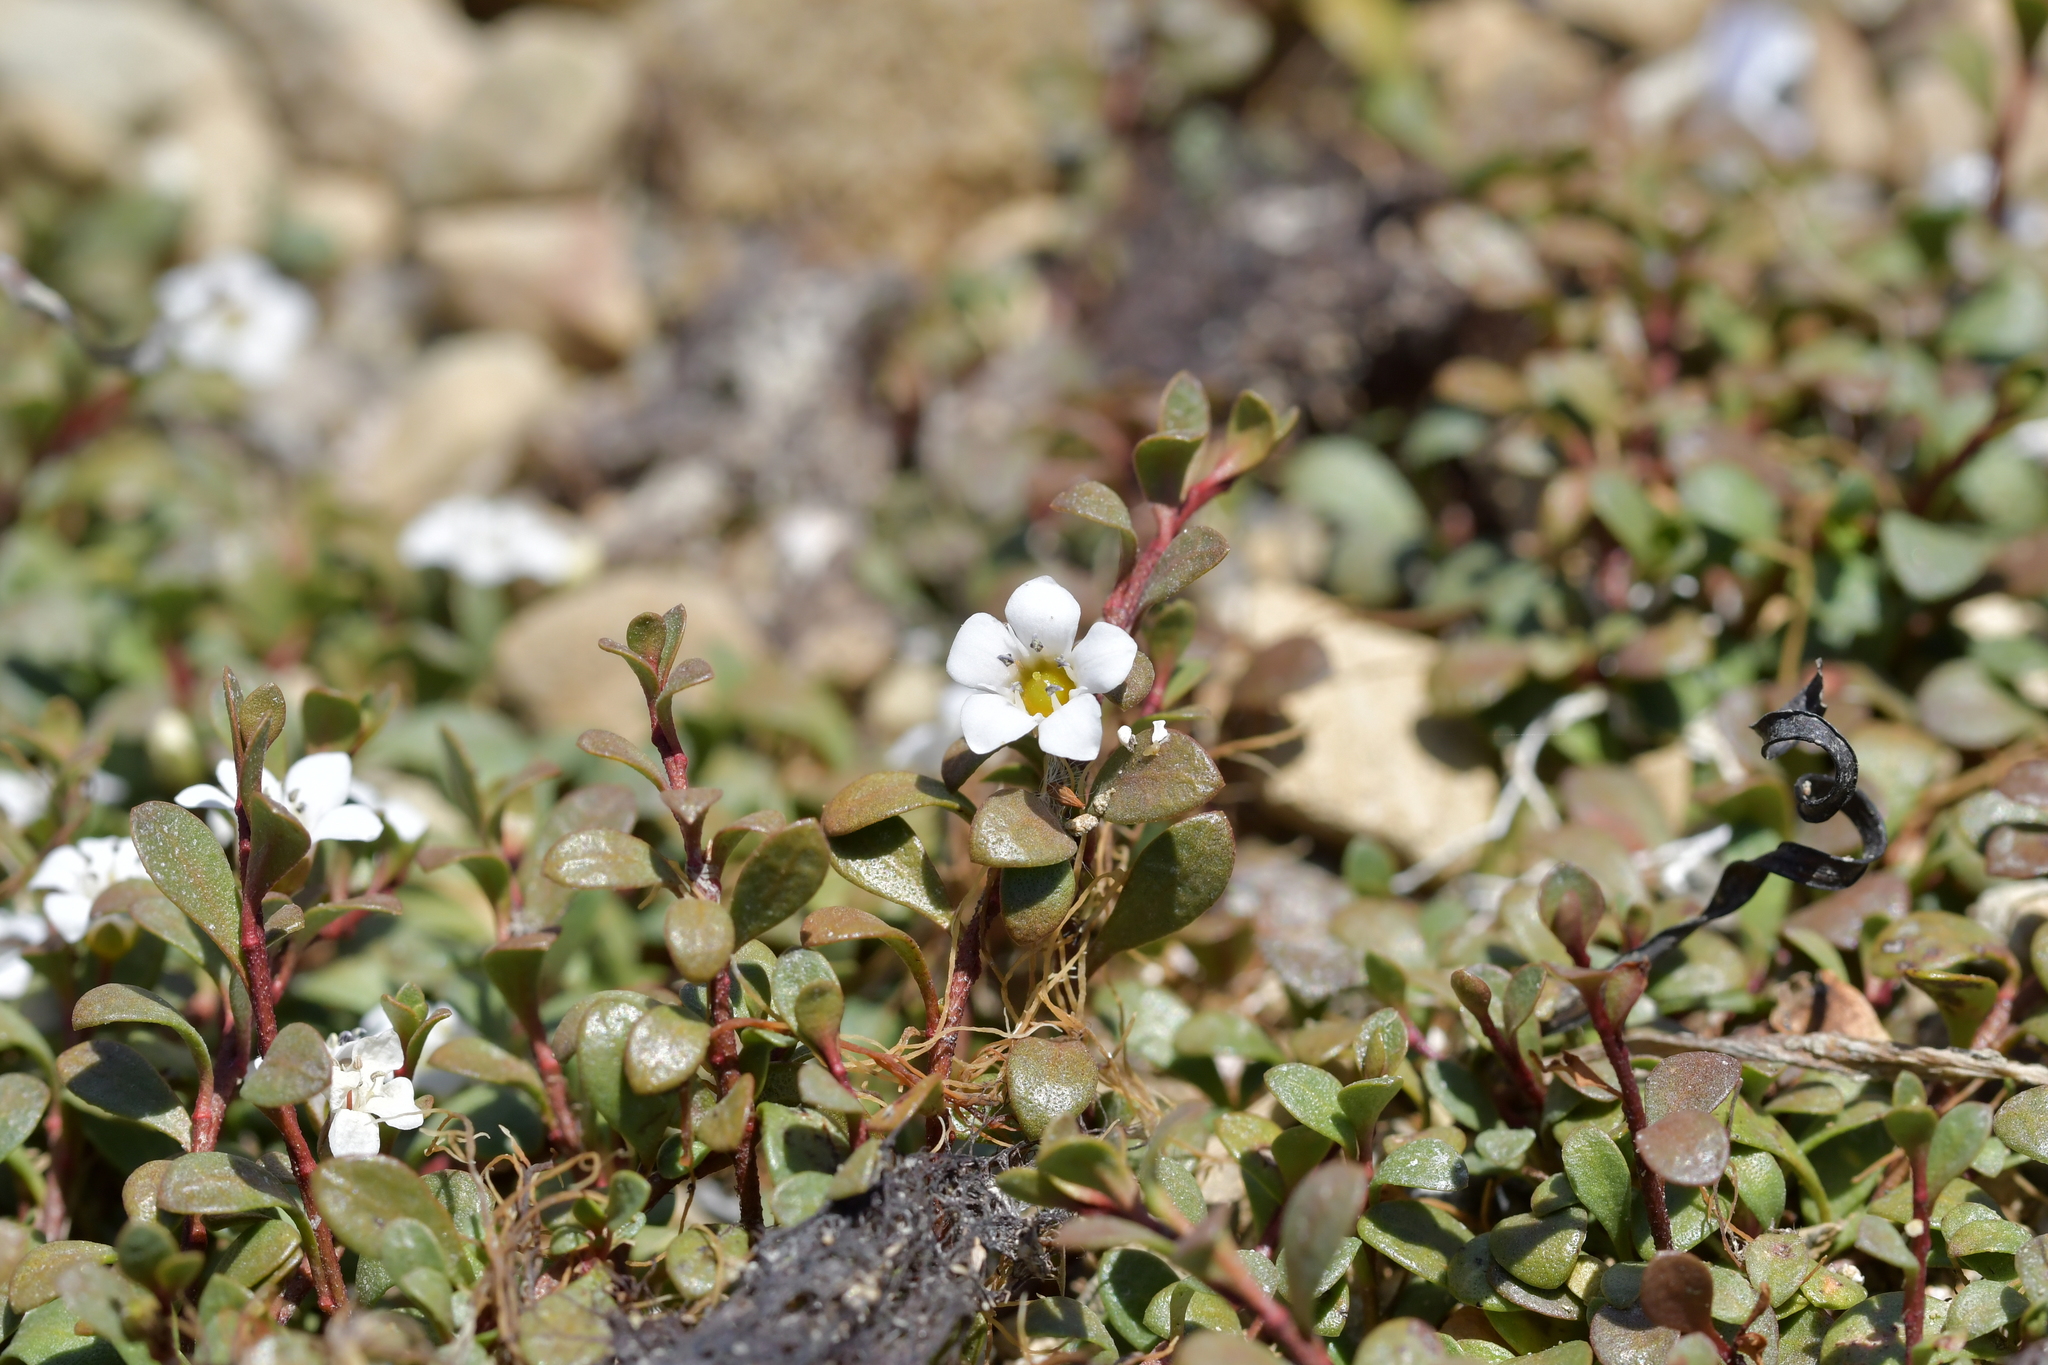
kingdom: Plantae
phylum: Tracheophyta
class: Magnoliopsida
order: Ericales
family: Primulaceae
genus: Samolus
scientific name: Samolus repens
